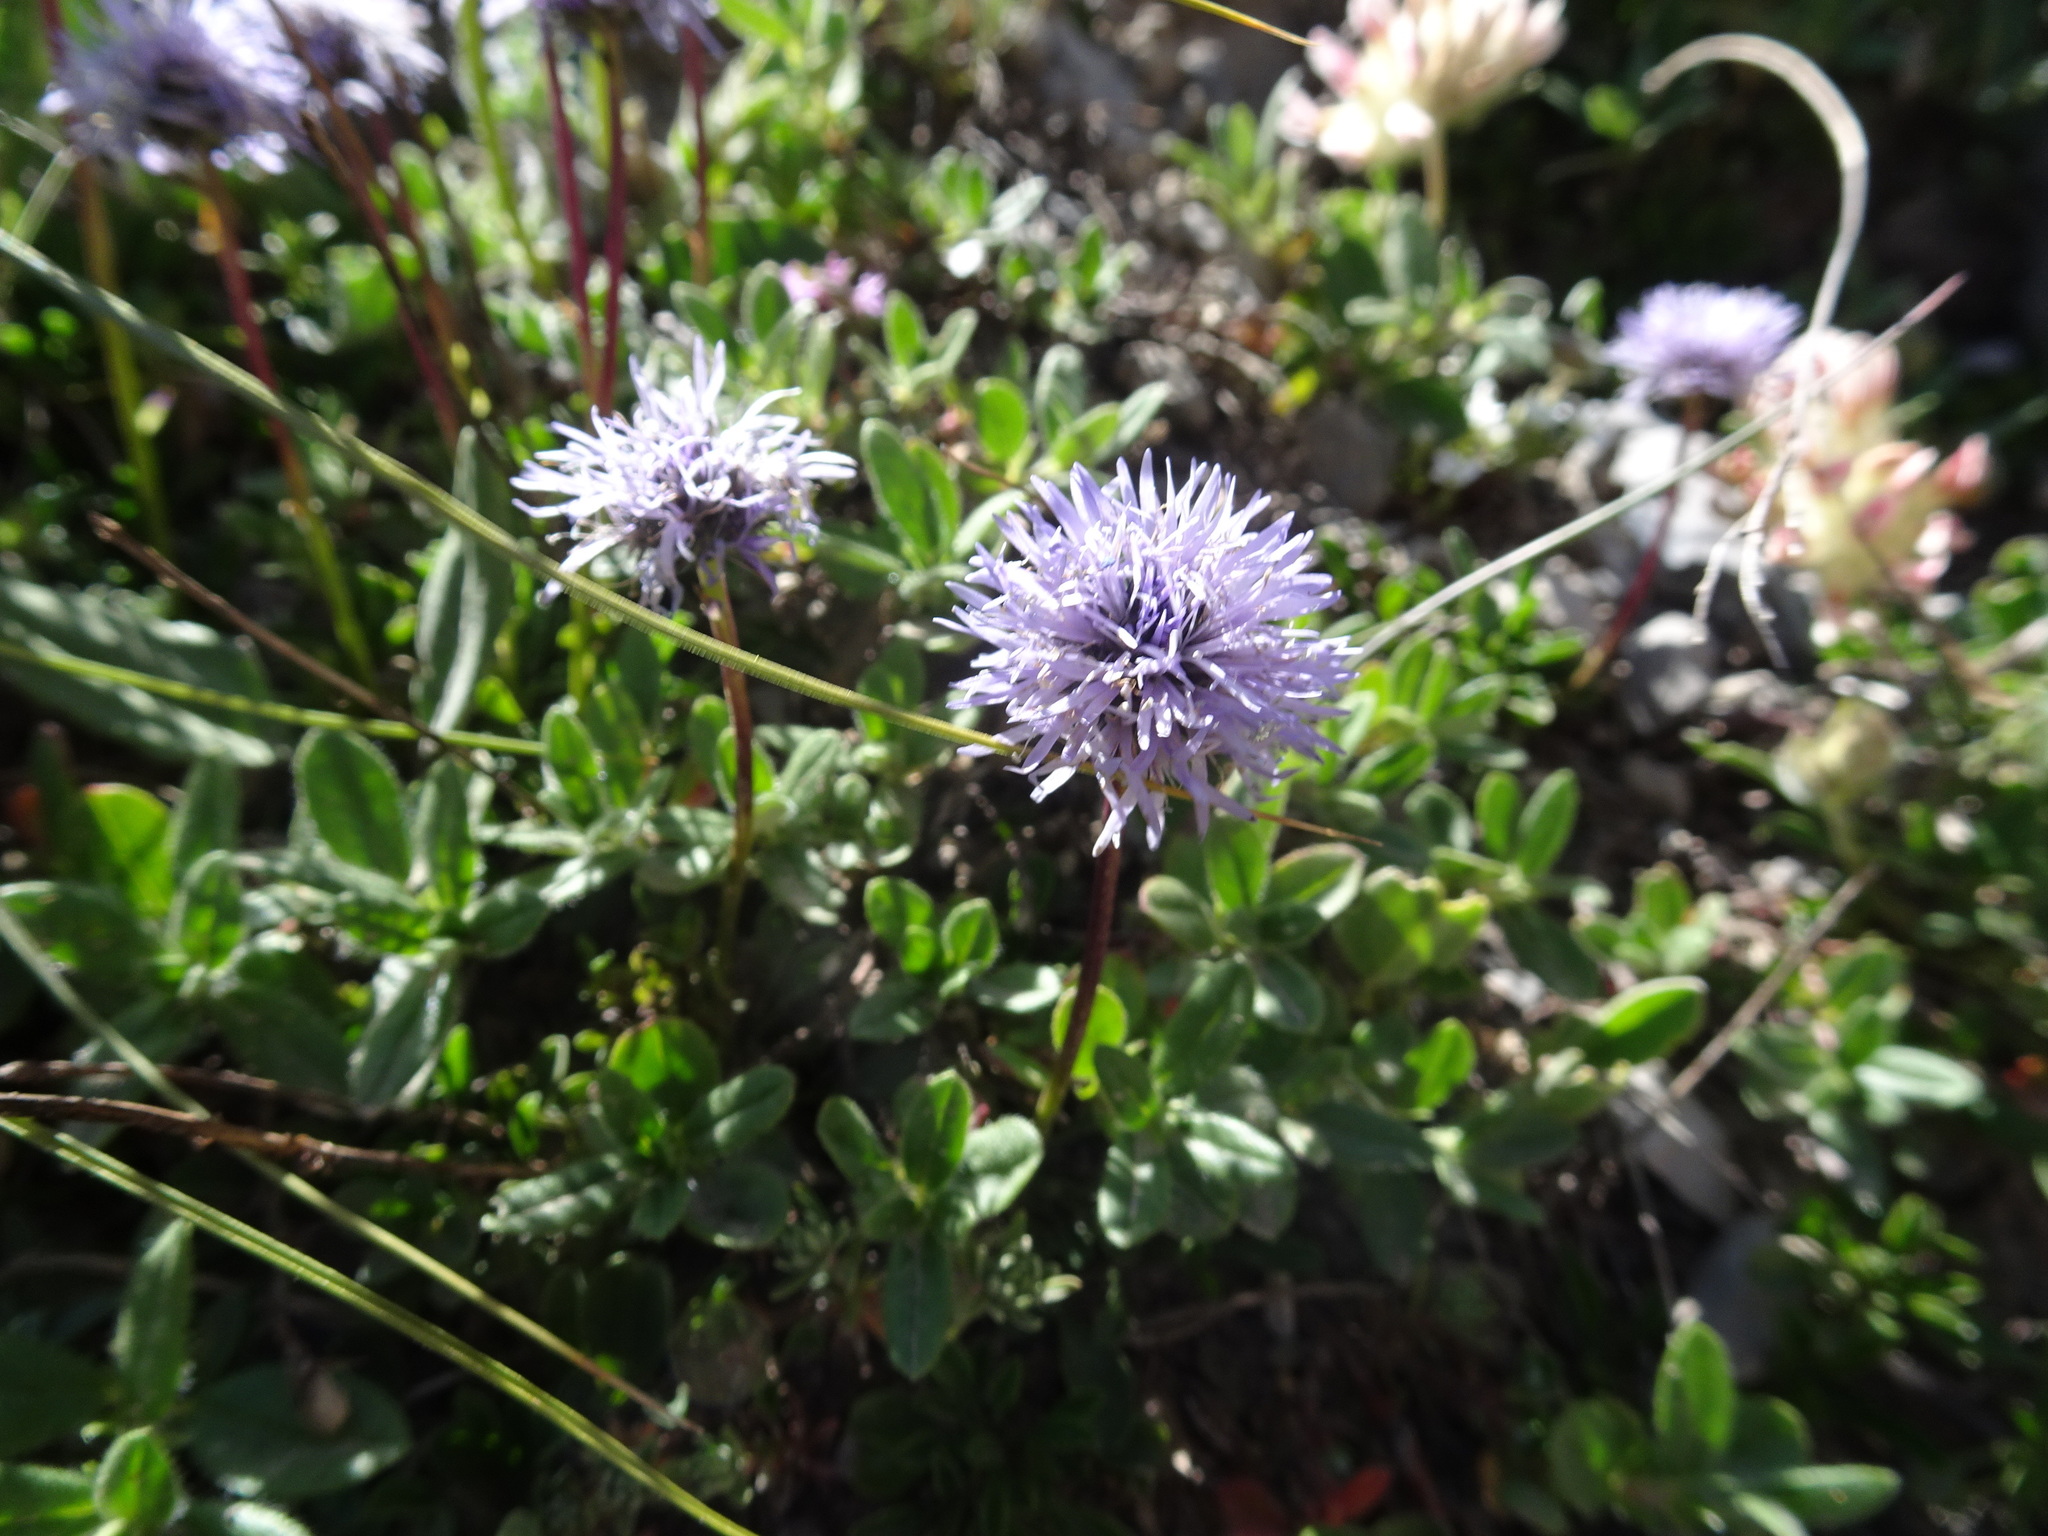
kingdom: Plantae
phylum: Tracheophyta
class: Magnoliopsida
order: Lamiales
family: Plantaginaceae
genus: Globularia
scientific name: Globularia cordifolia
